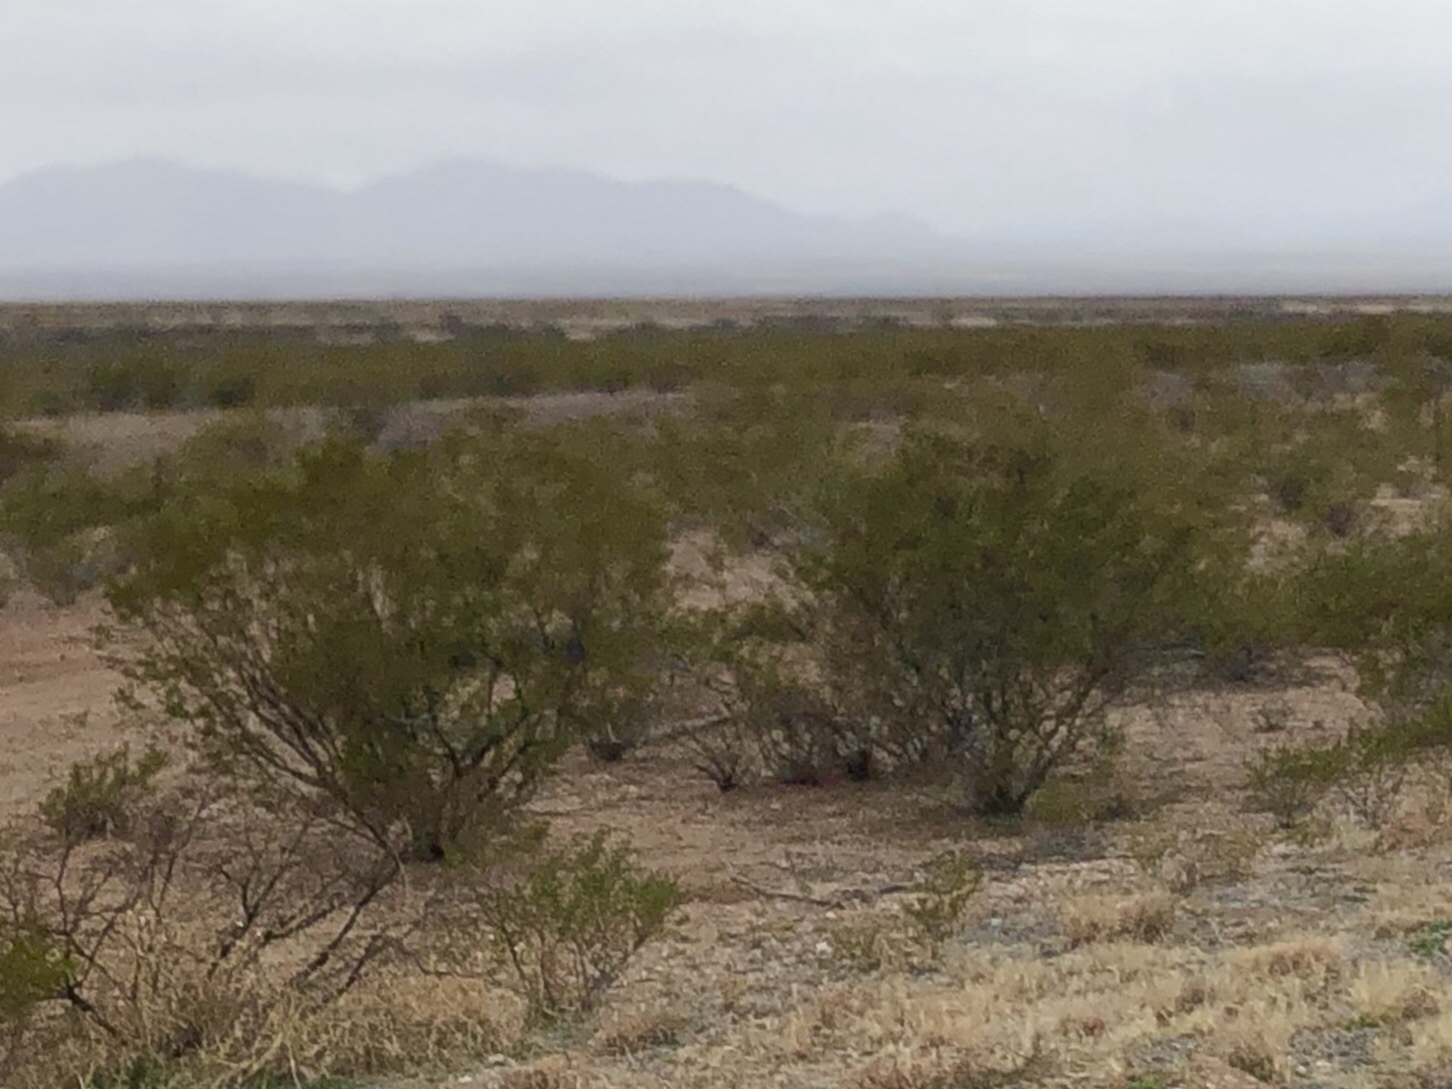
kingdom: Plantae
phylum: Tracheophyta
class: Magnoliopsida
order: Zygophyllales
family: Zygophyllaceae
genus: Larrea
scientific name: Larrea tridentata
